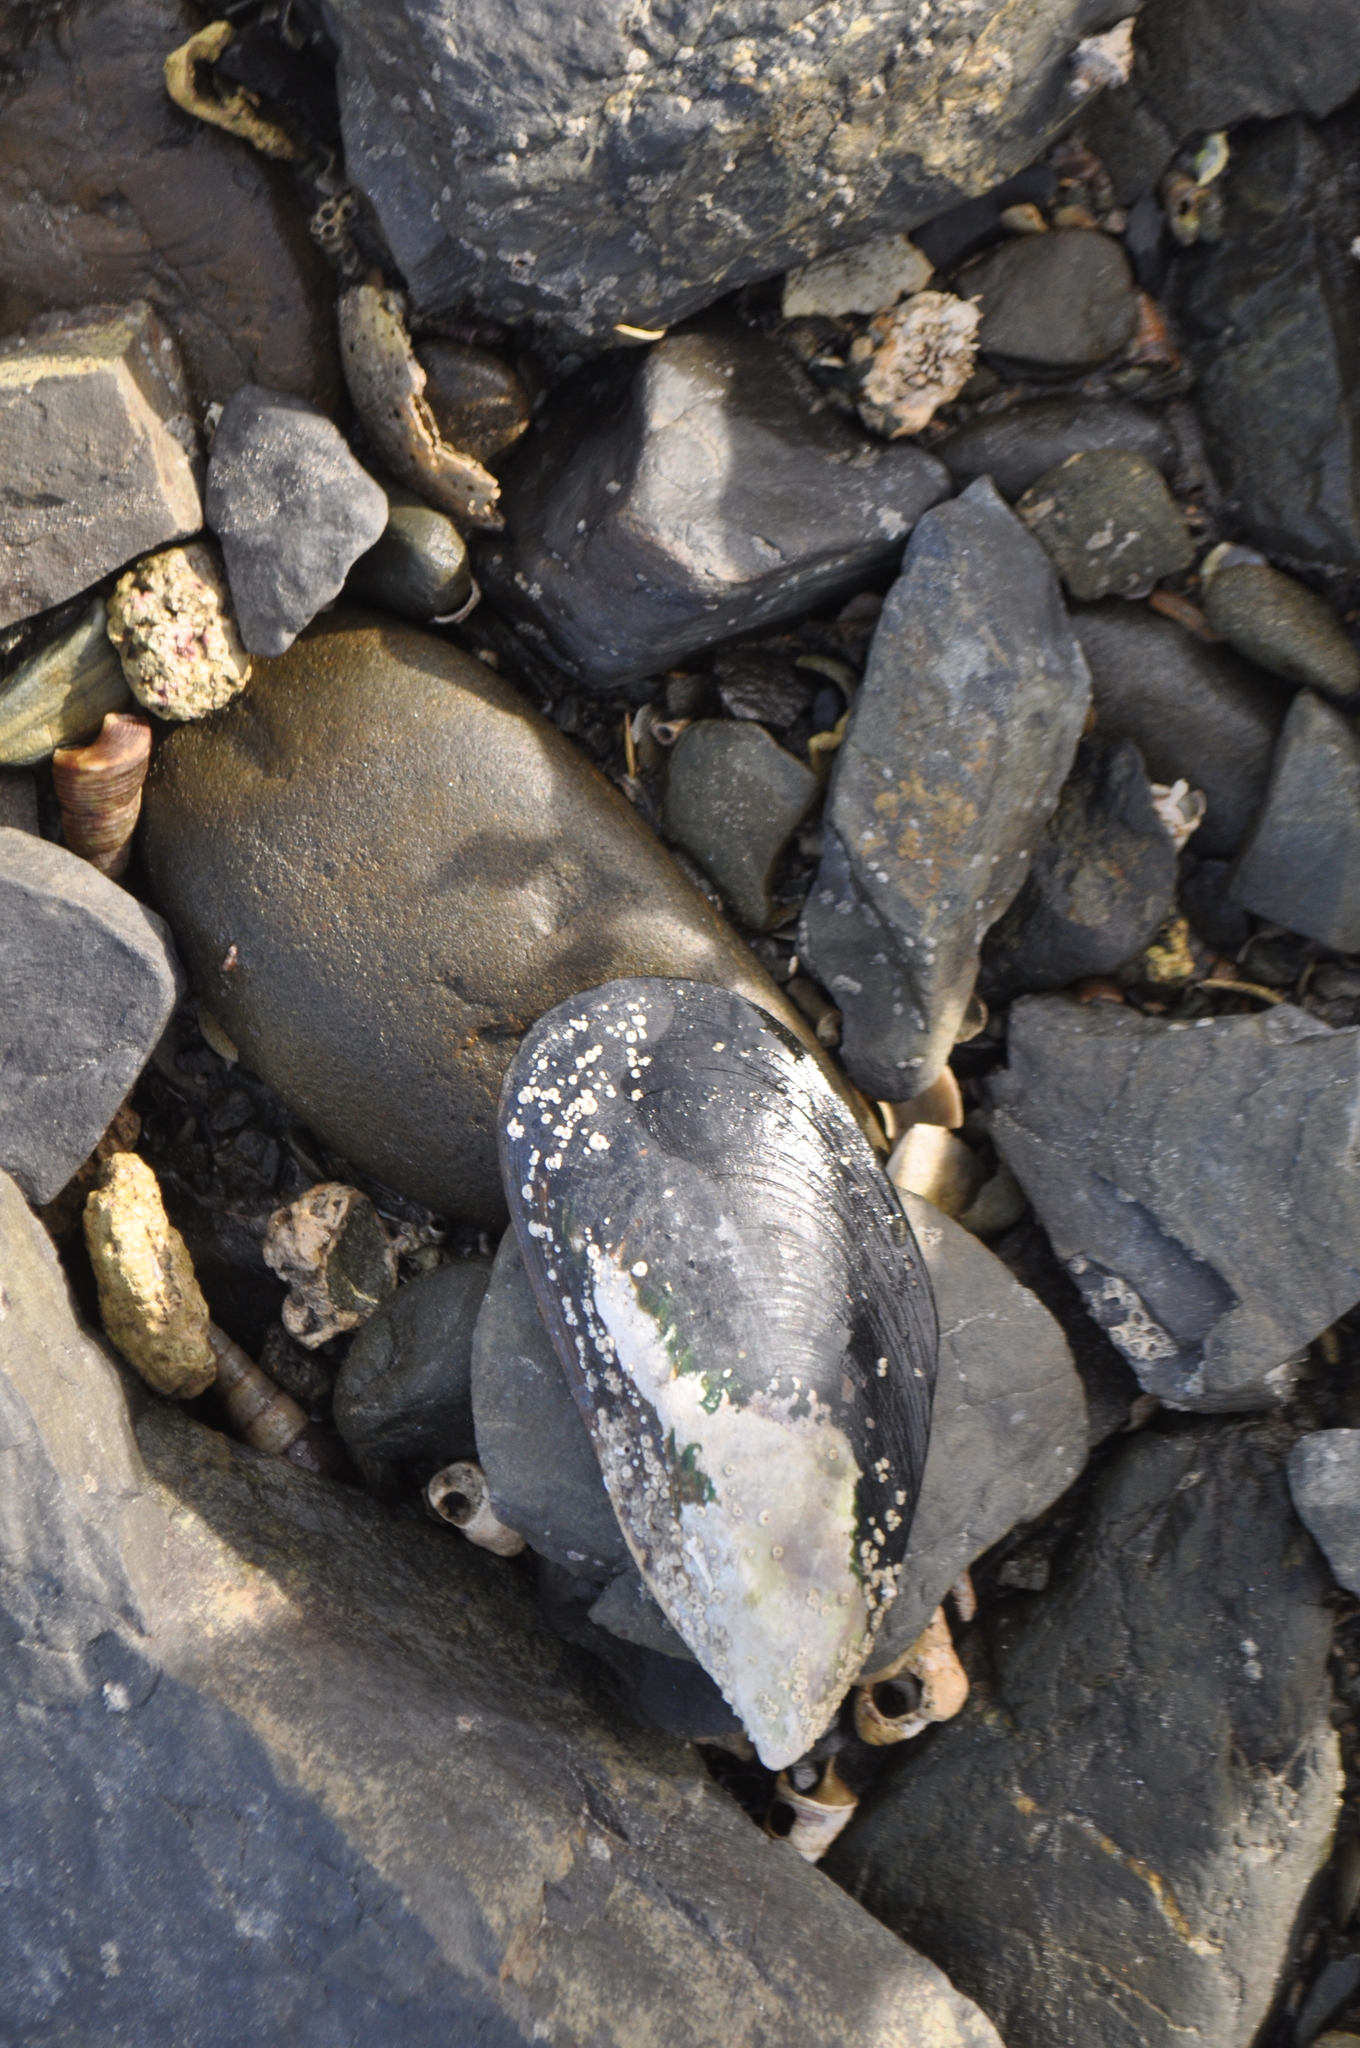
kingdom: Animalia
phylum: Mollusca
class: Bivalvia
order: Mytilida
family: Mytilidae
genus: Perna
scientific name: Perna canaliculus
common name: New zealand greenshelltm
